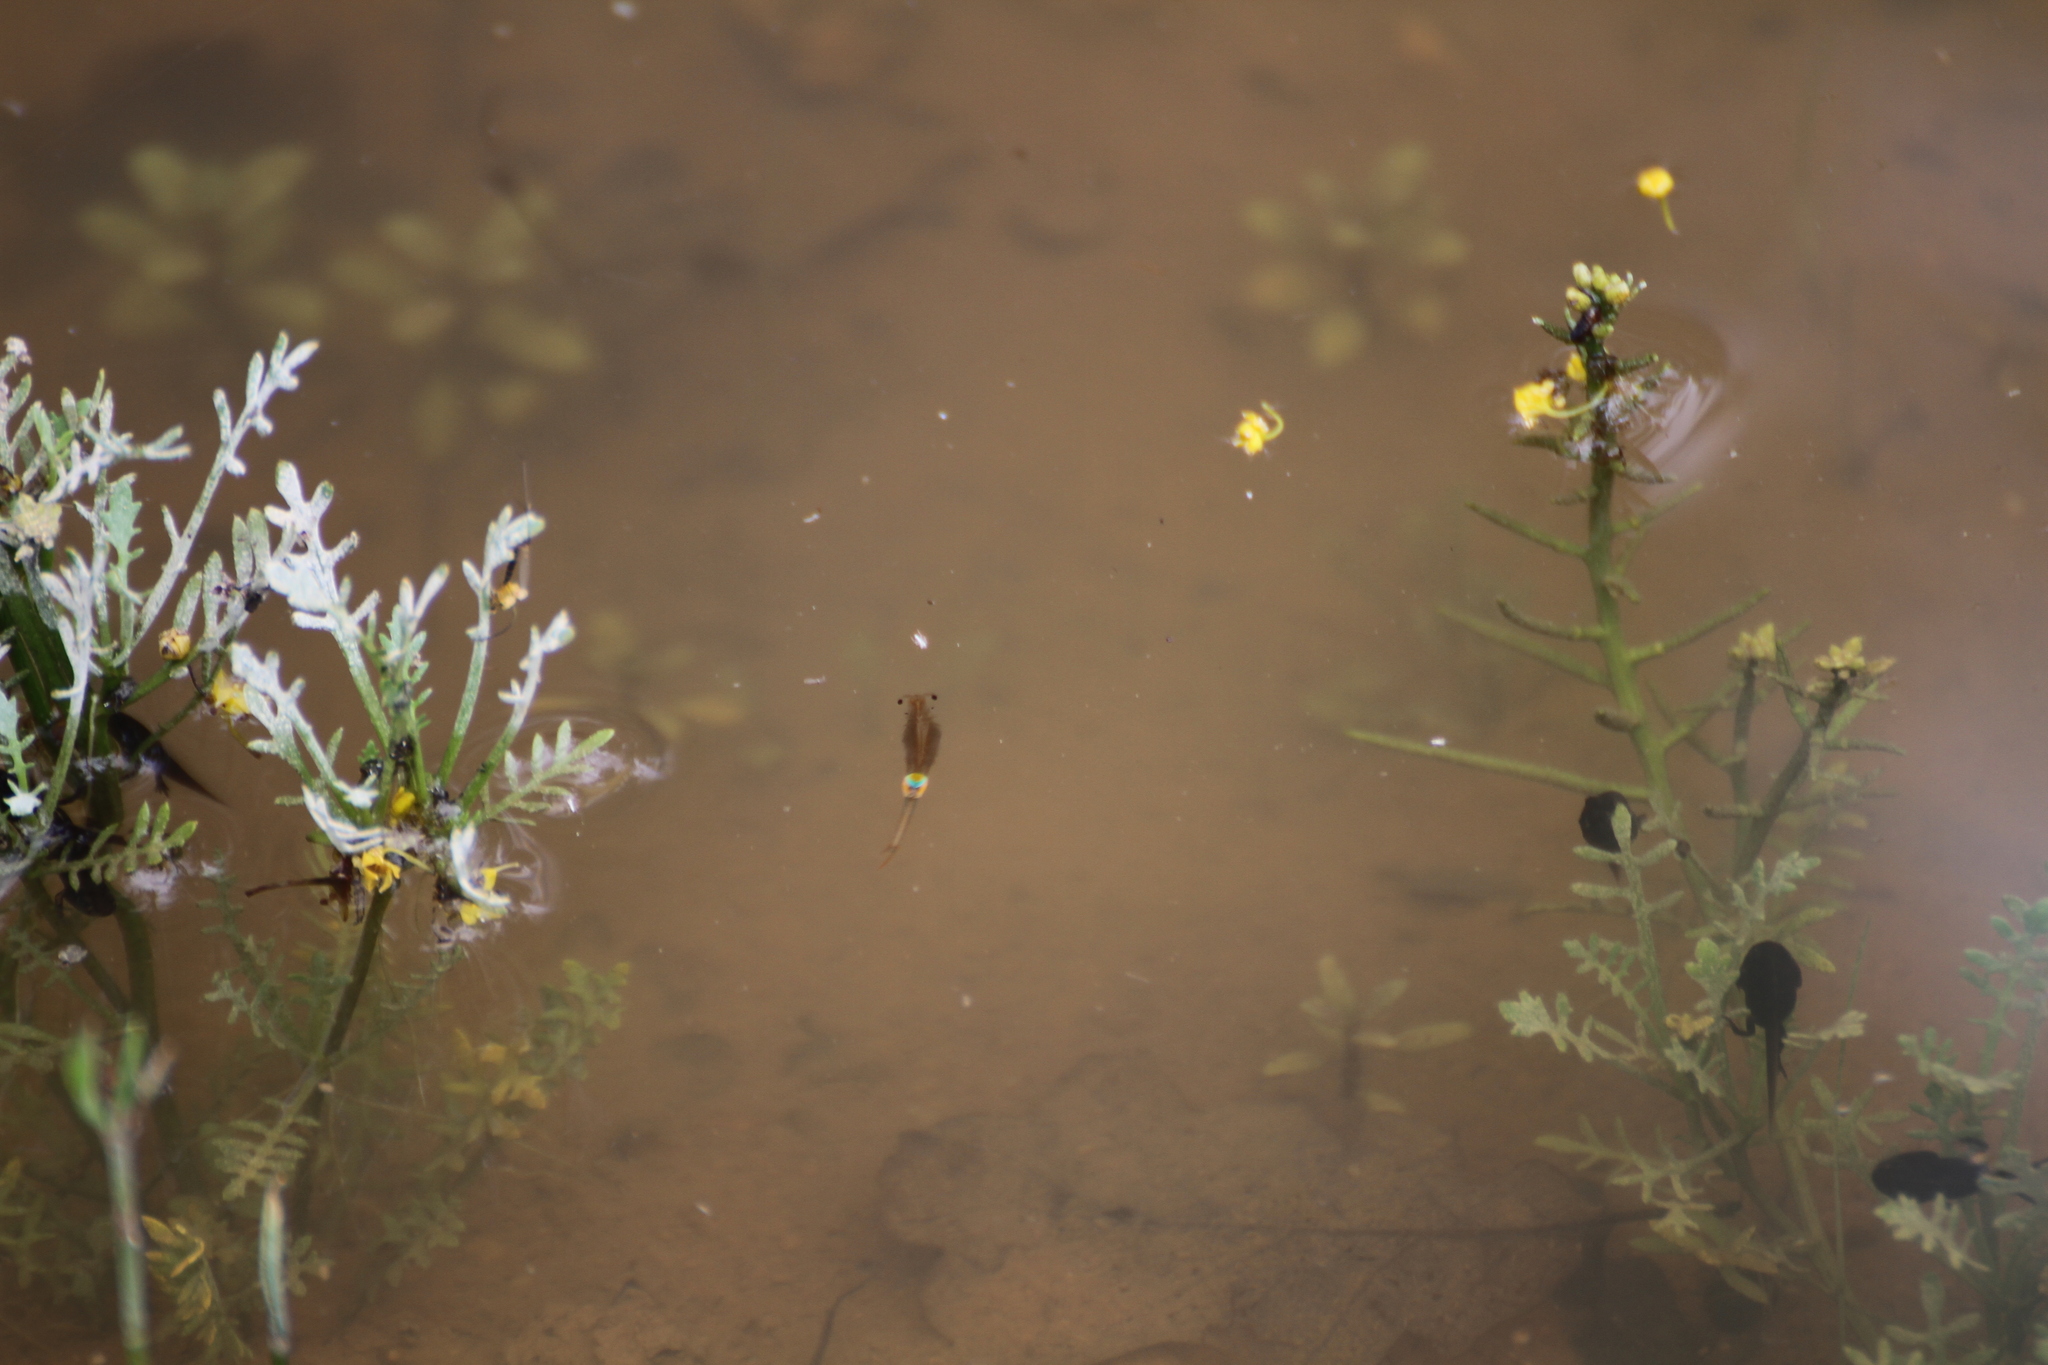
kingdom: Animalia
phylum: Arthropoda
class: Branchiopoda
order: Anostraca
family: Branchipodidae
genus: Branchipus
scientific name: Branchipus schaefferi
